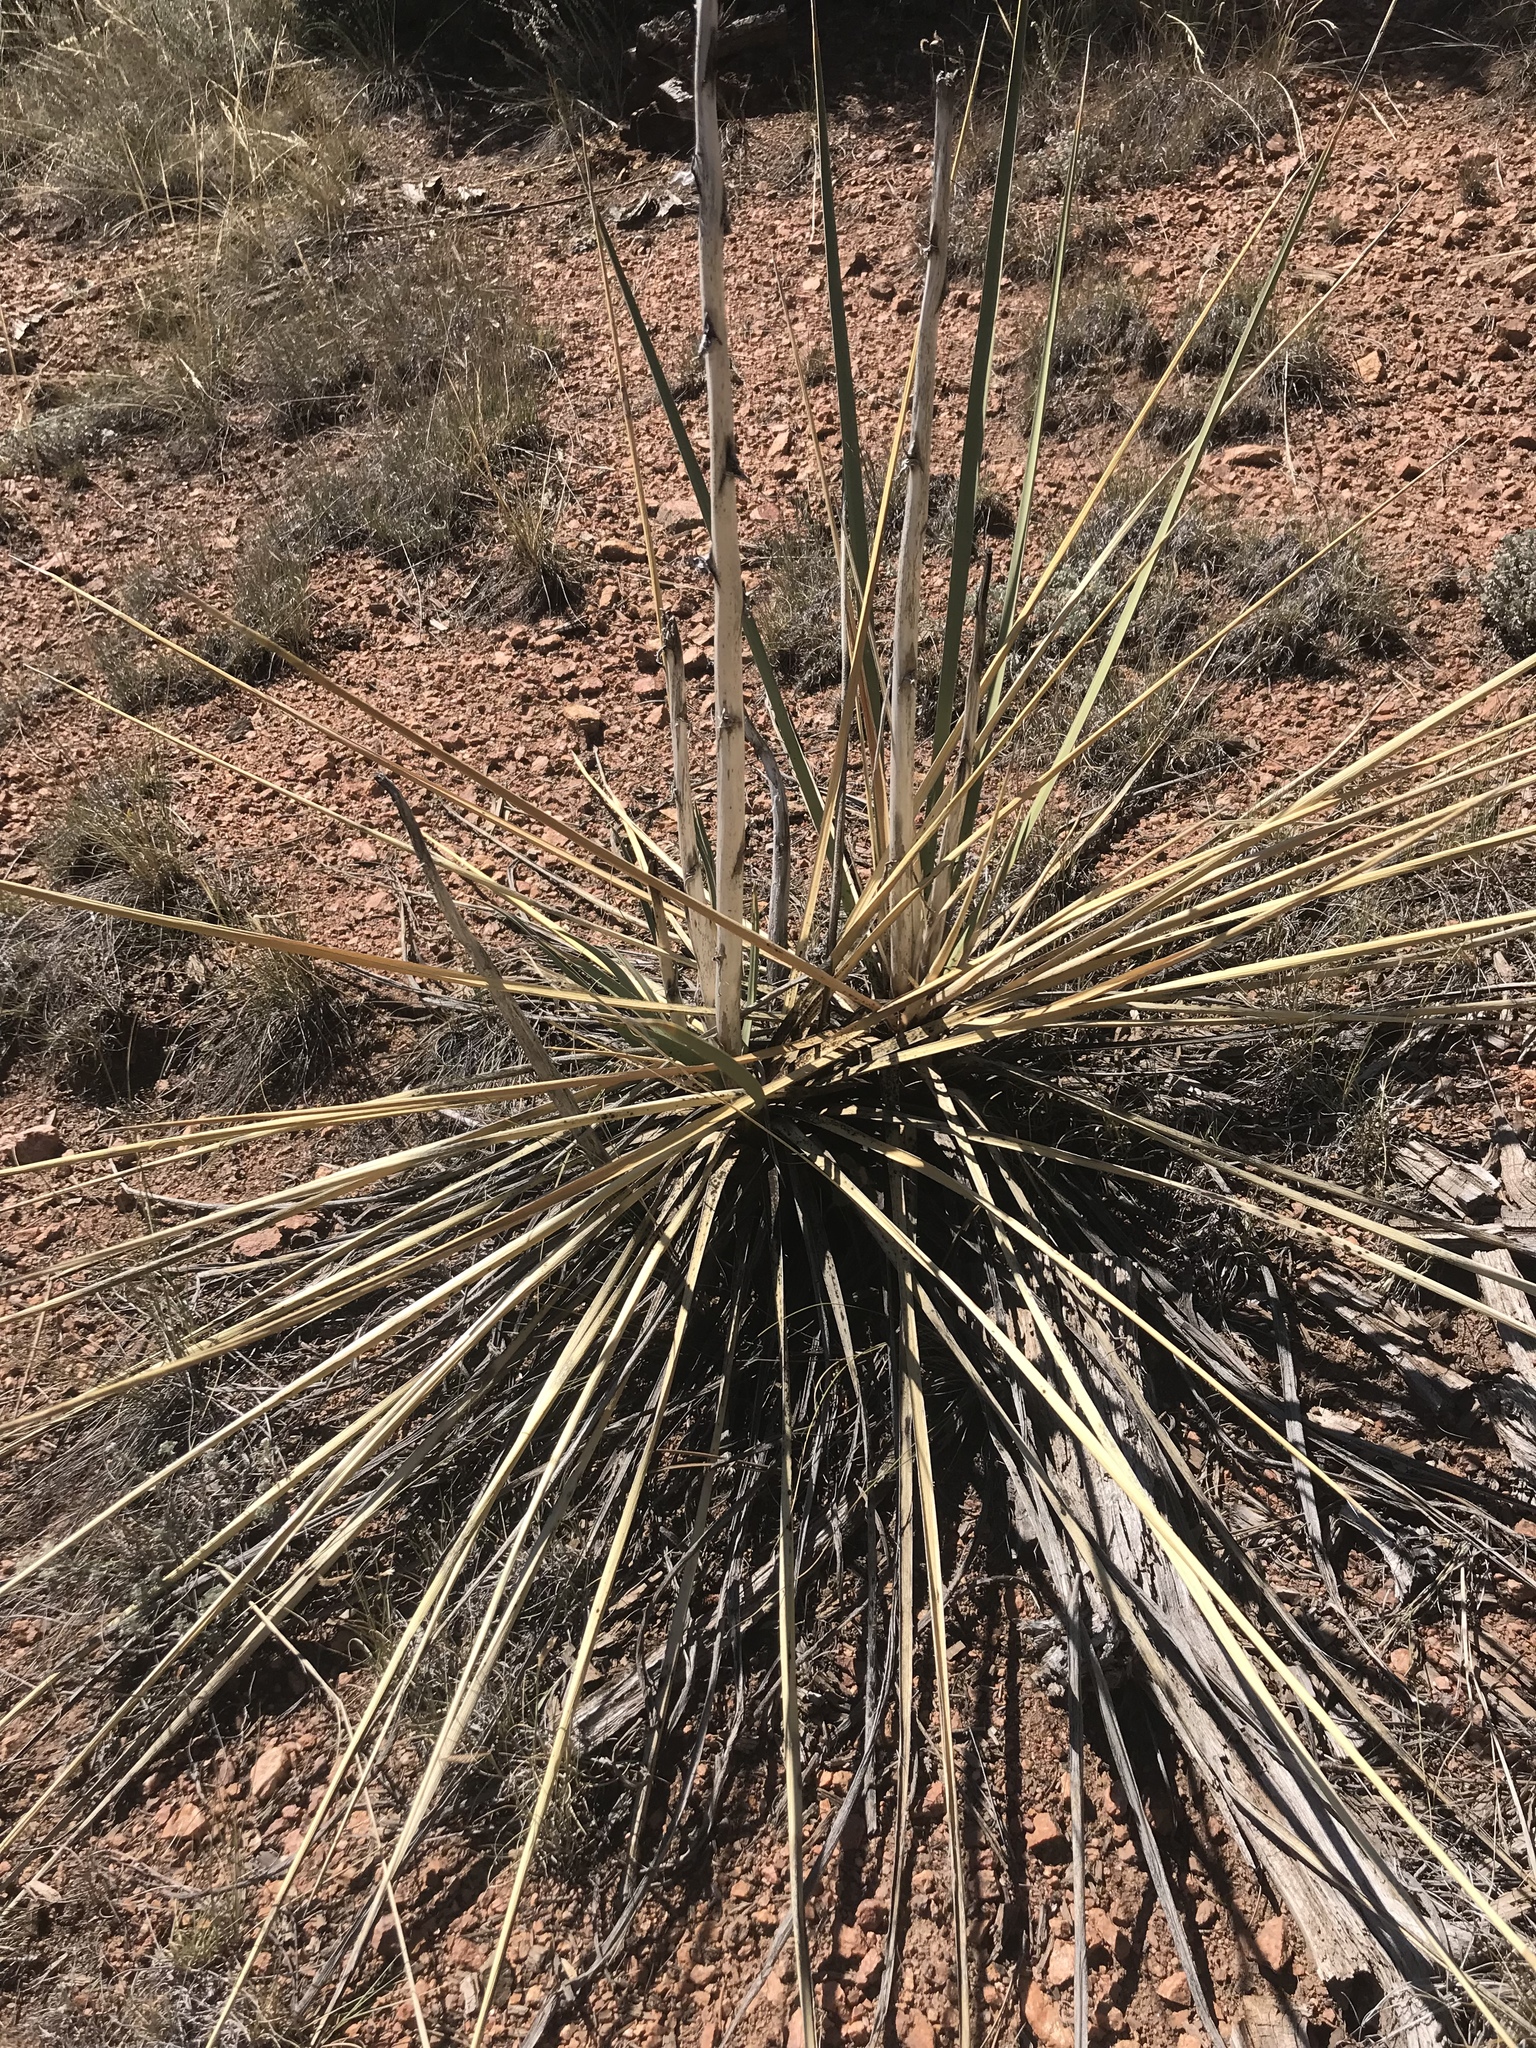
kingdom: Plantae
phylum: Tracheophyta
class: Liliopsida
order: Asparagales
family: Asparagaceae
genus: Yucca
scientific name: Yucca glauca
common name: Great plains yucca
